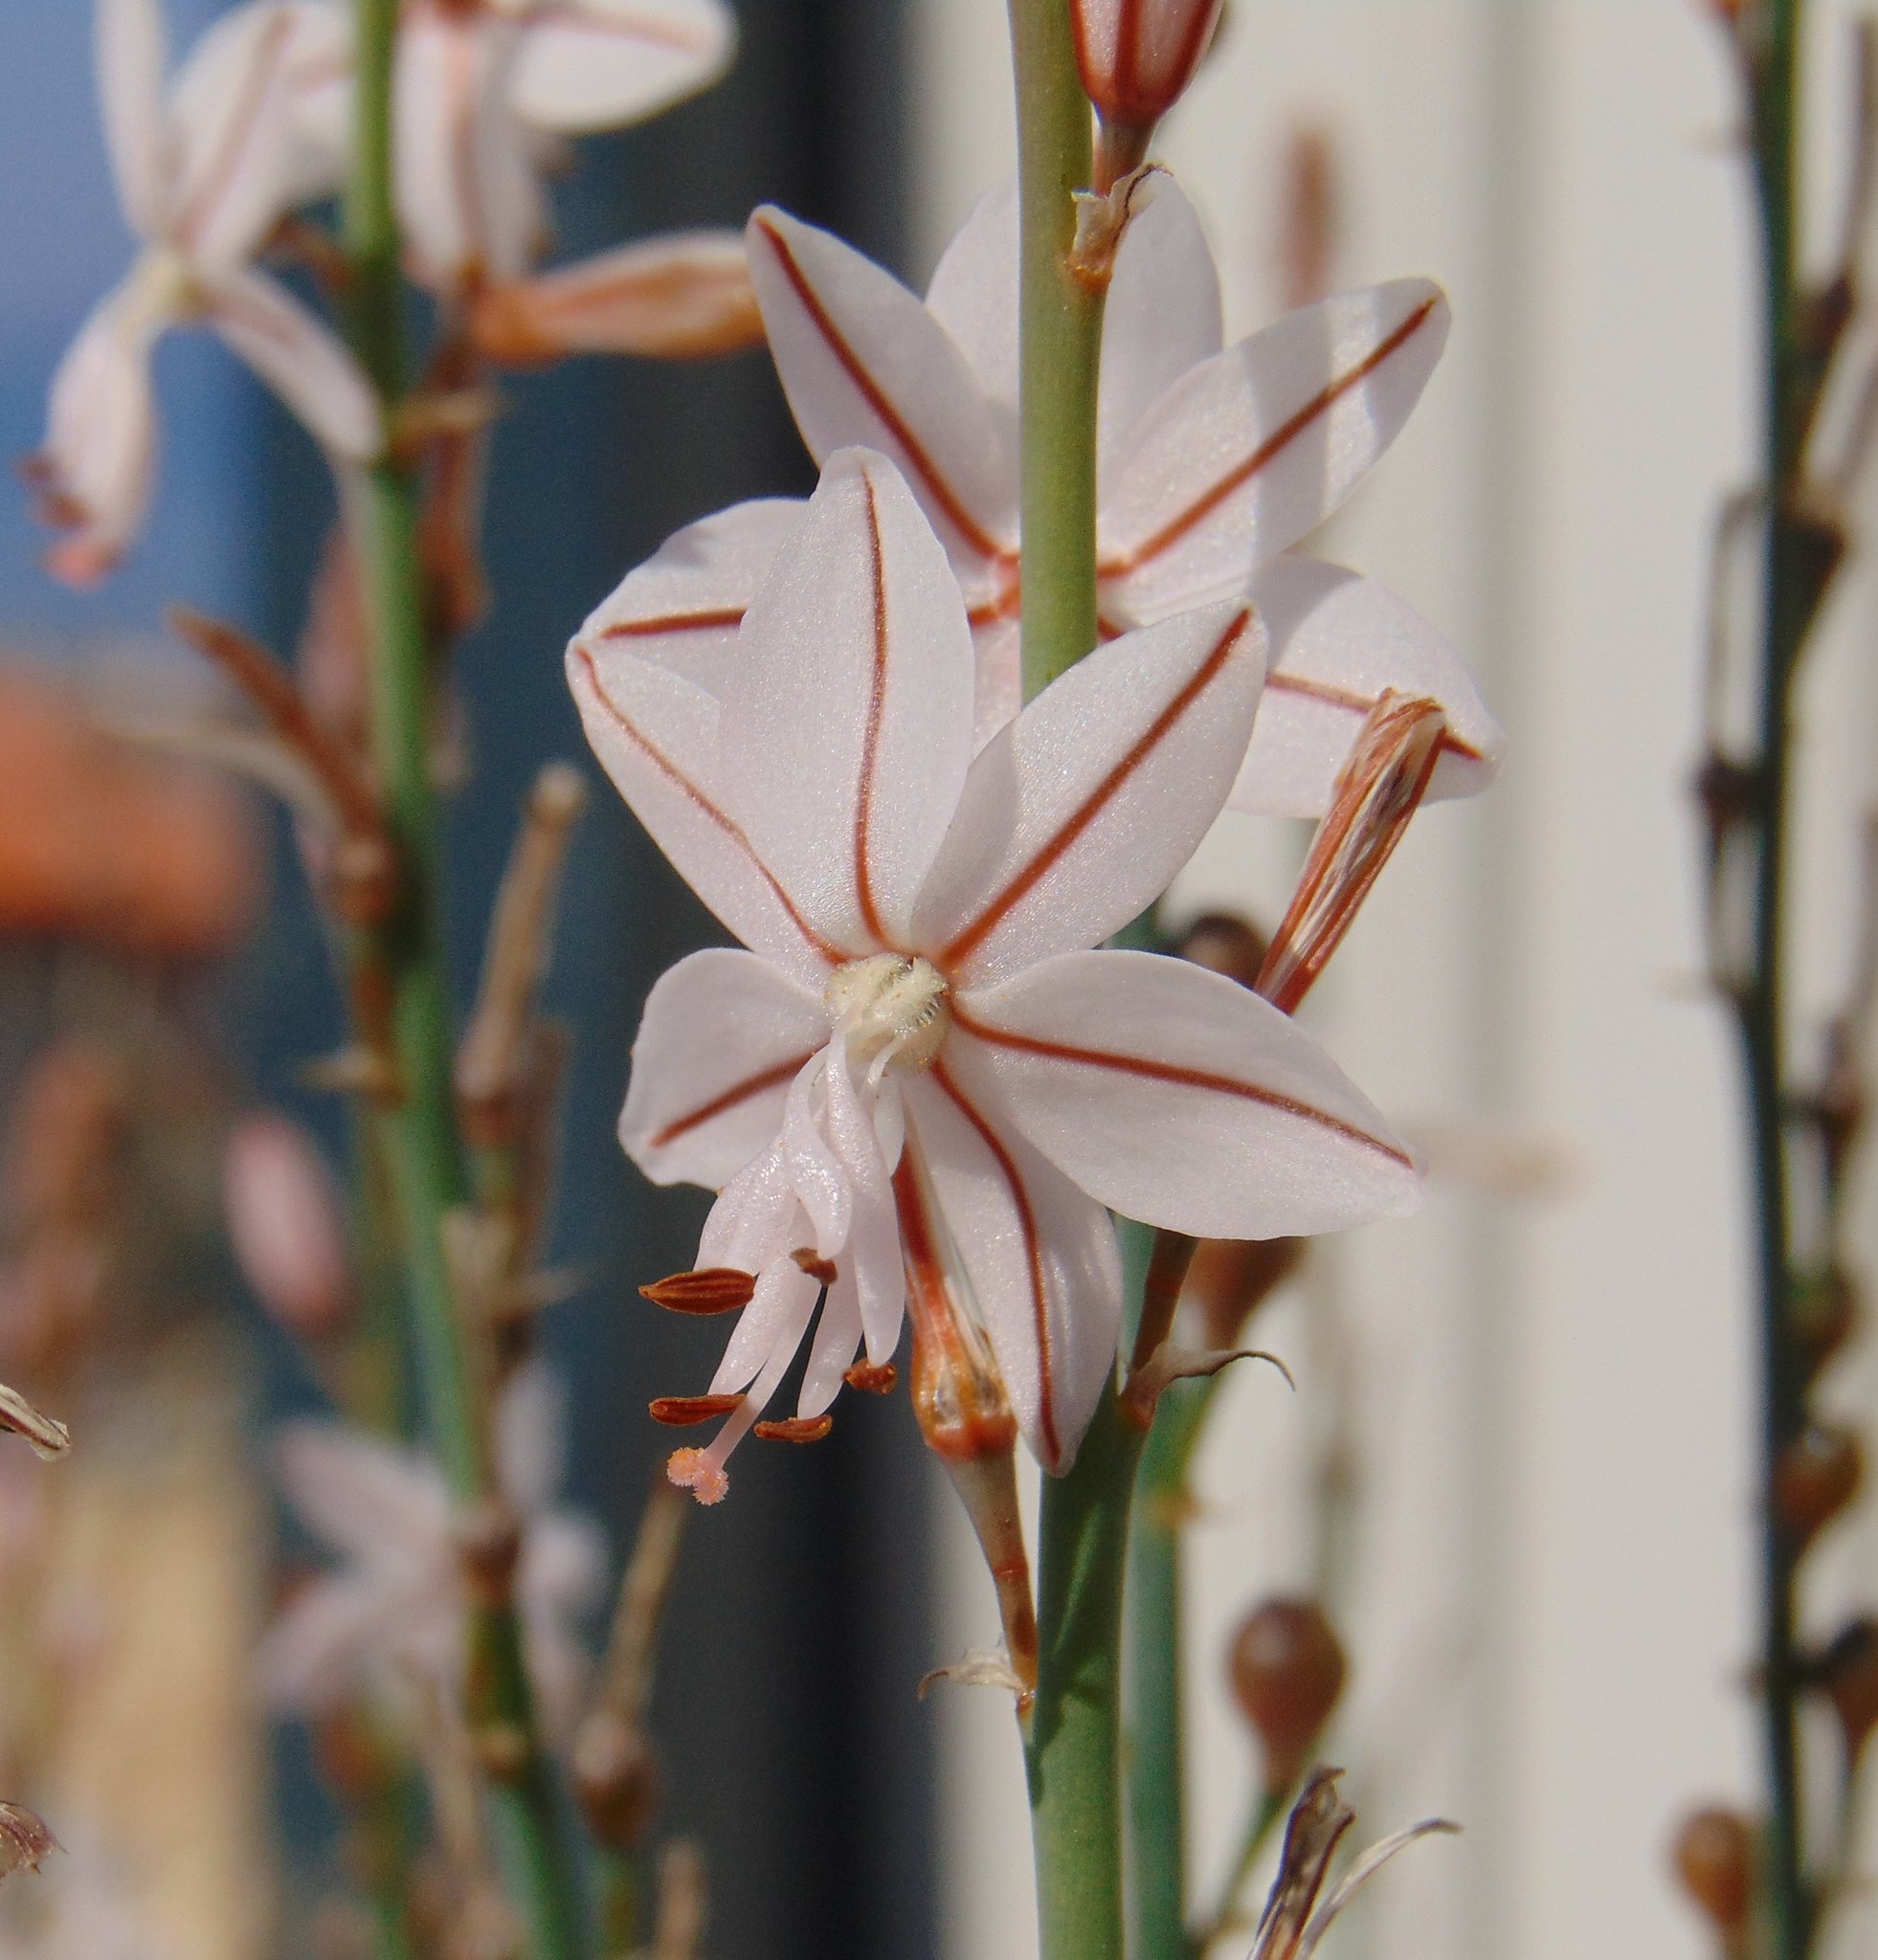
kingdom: Plantae
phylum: Tracheophyta
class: Liliopsida
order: Asparagales
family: Asphodelaceae
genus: Asphodelus
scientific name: Asphodelus fistulosus
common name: Onionweed
